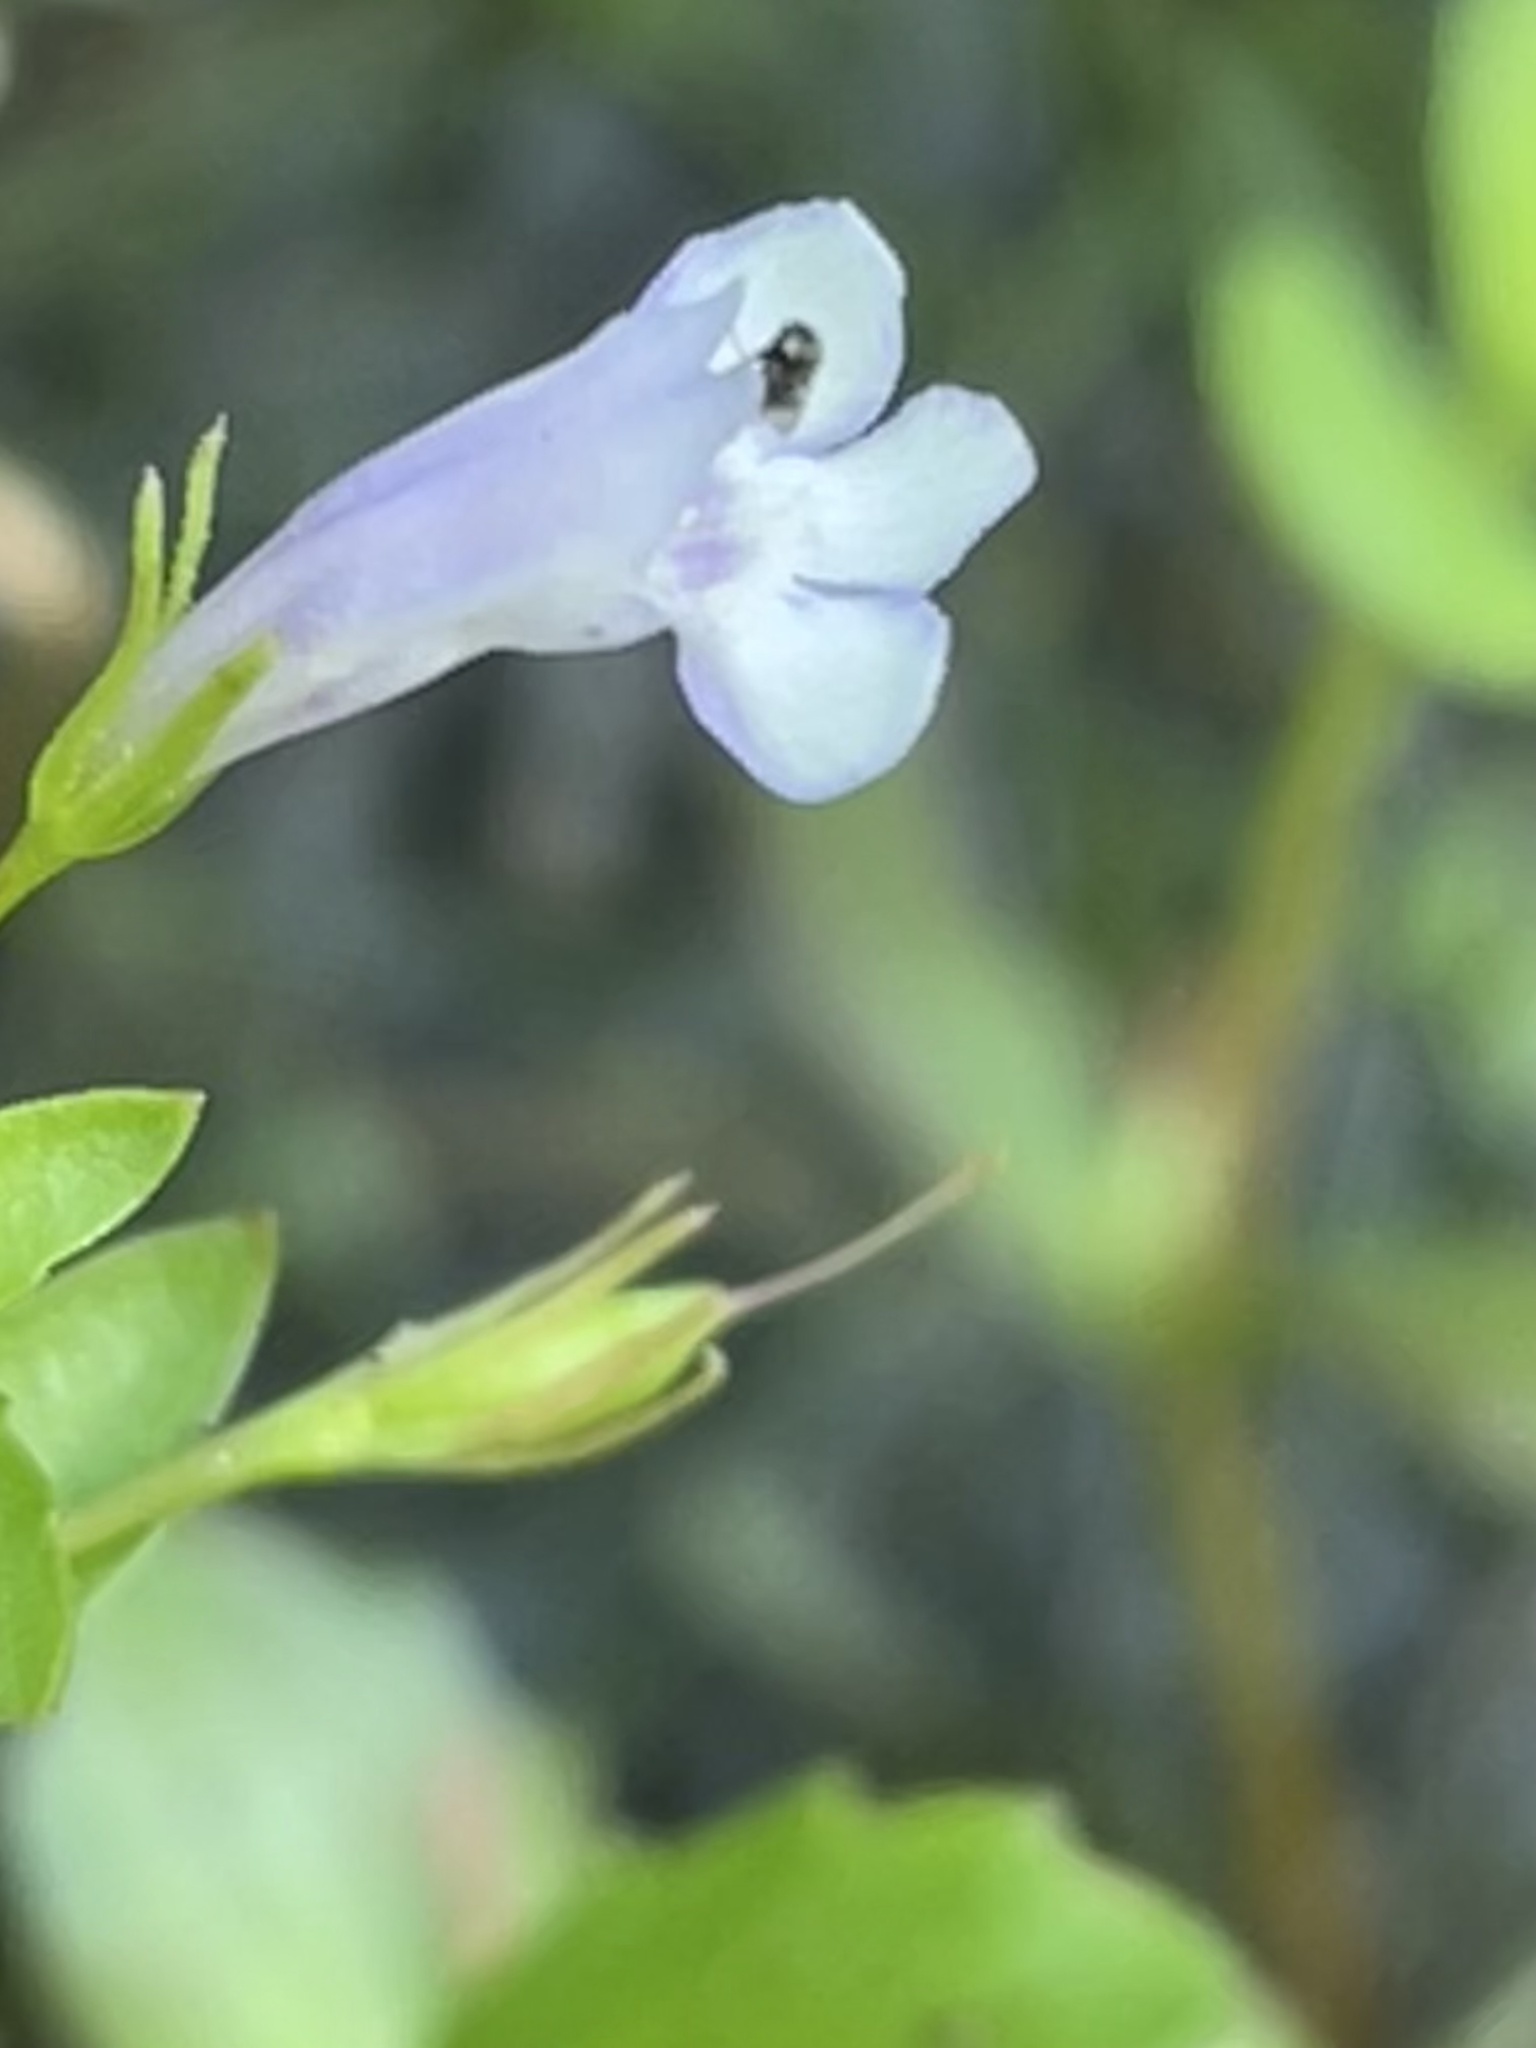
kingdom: Plantae
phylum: Tracheophyta
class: Magnoliopsida
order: Lamiales
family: Linderniaceae
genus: Lindernia
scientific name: Lindernia dubia
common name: Annual false pimpernel
